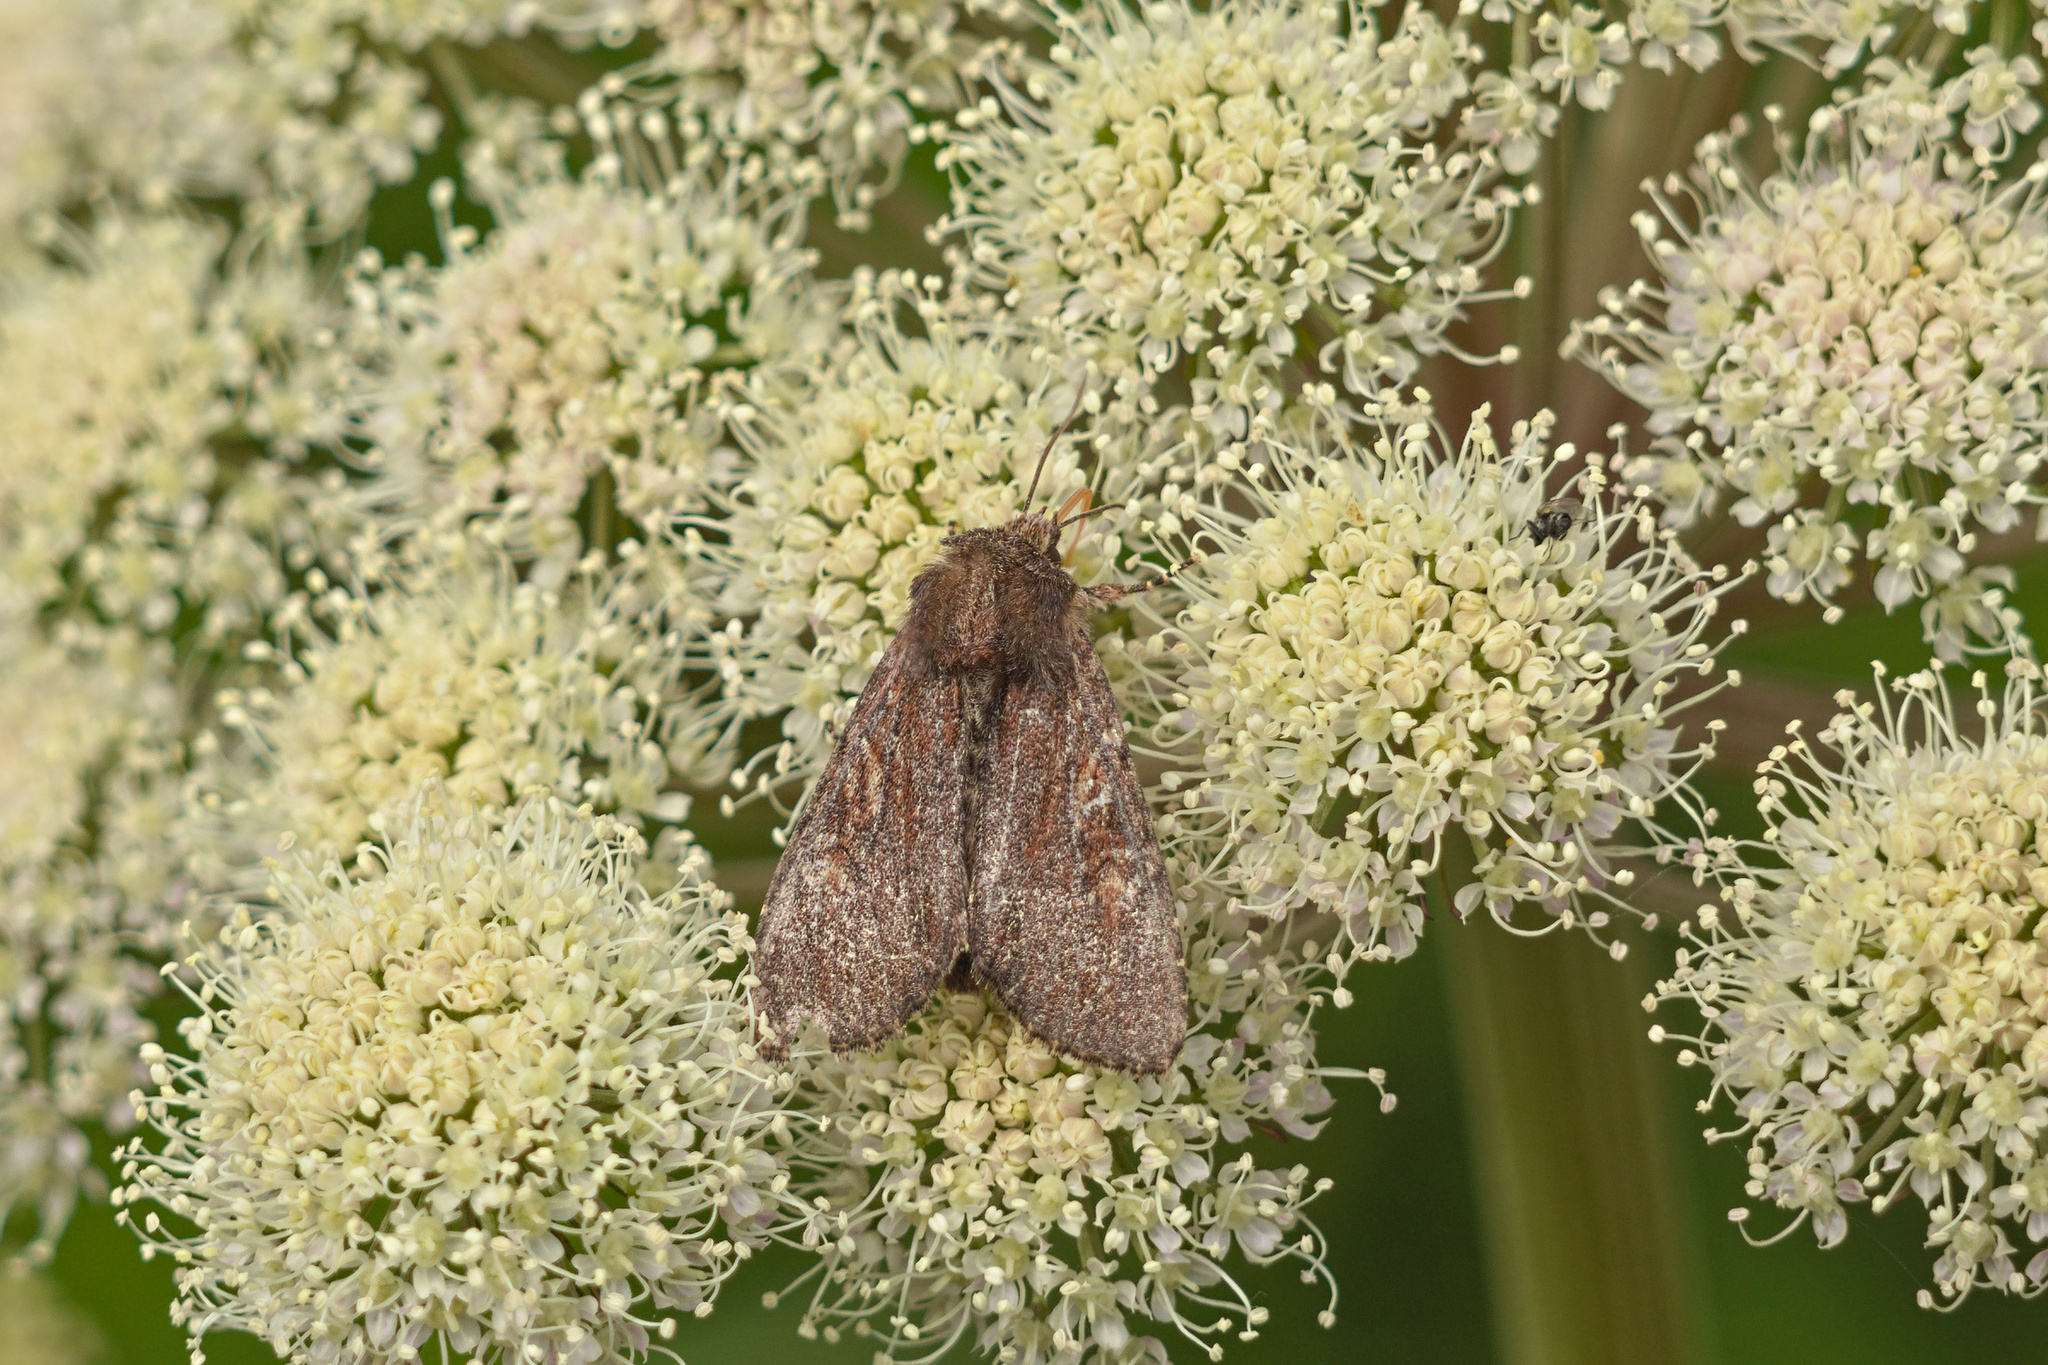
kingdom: Animalia
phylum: Arthropoda
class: Insecta
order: Lepidoptera
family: Noctuidae
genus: Apamea
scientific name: Apamea crenata
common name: Clouded-bordered brindle
